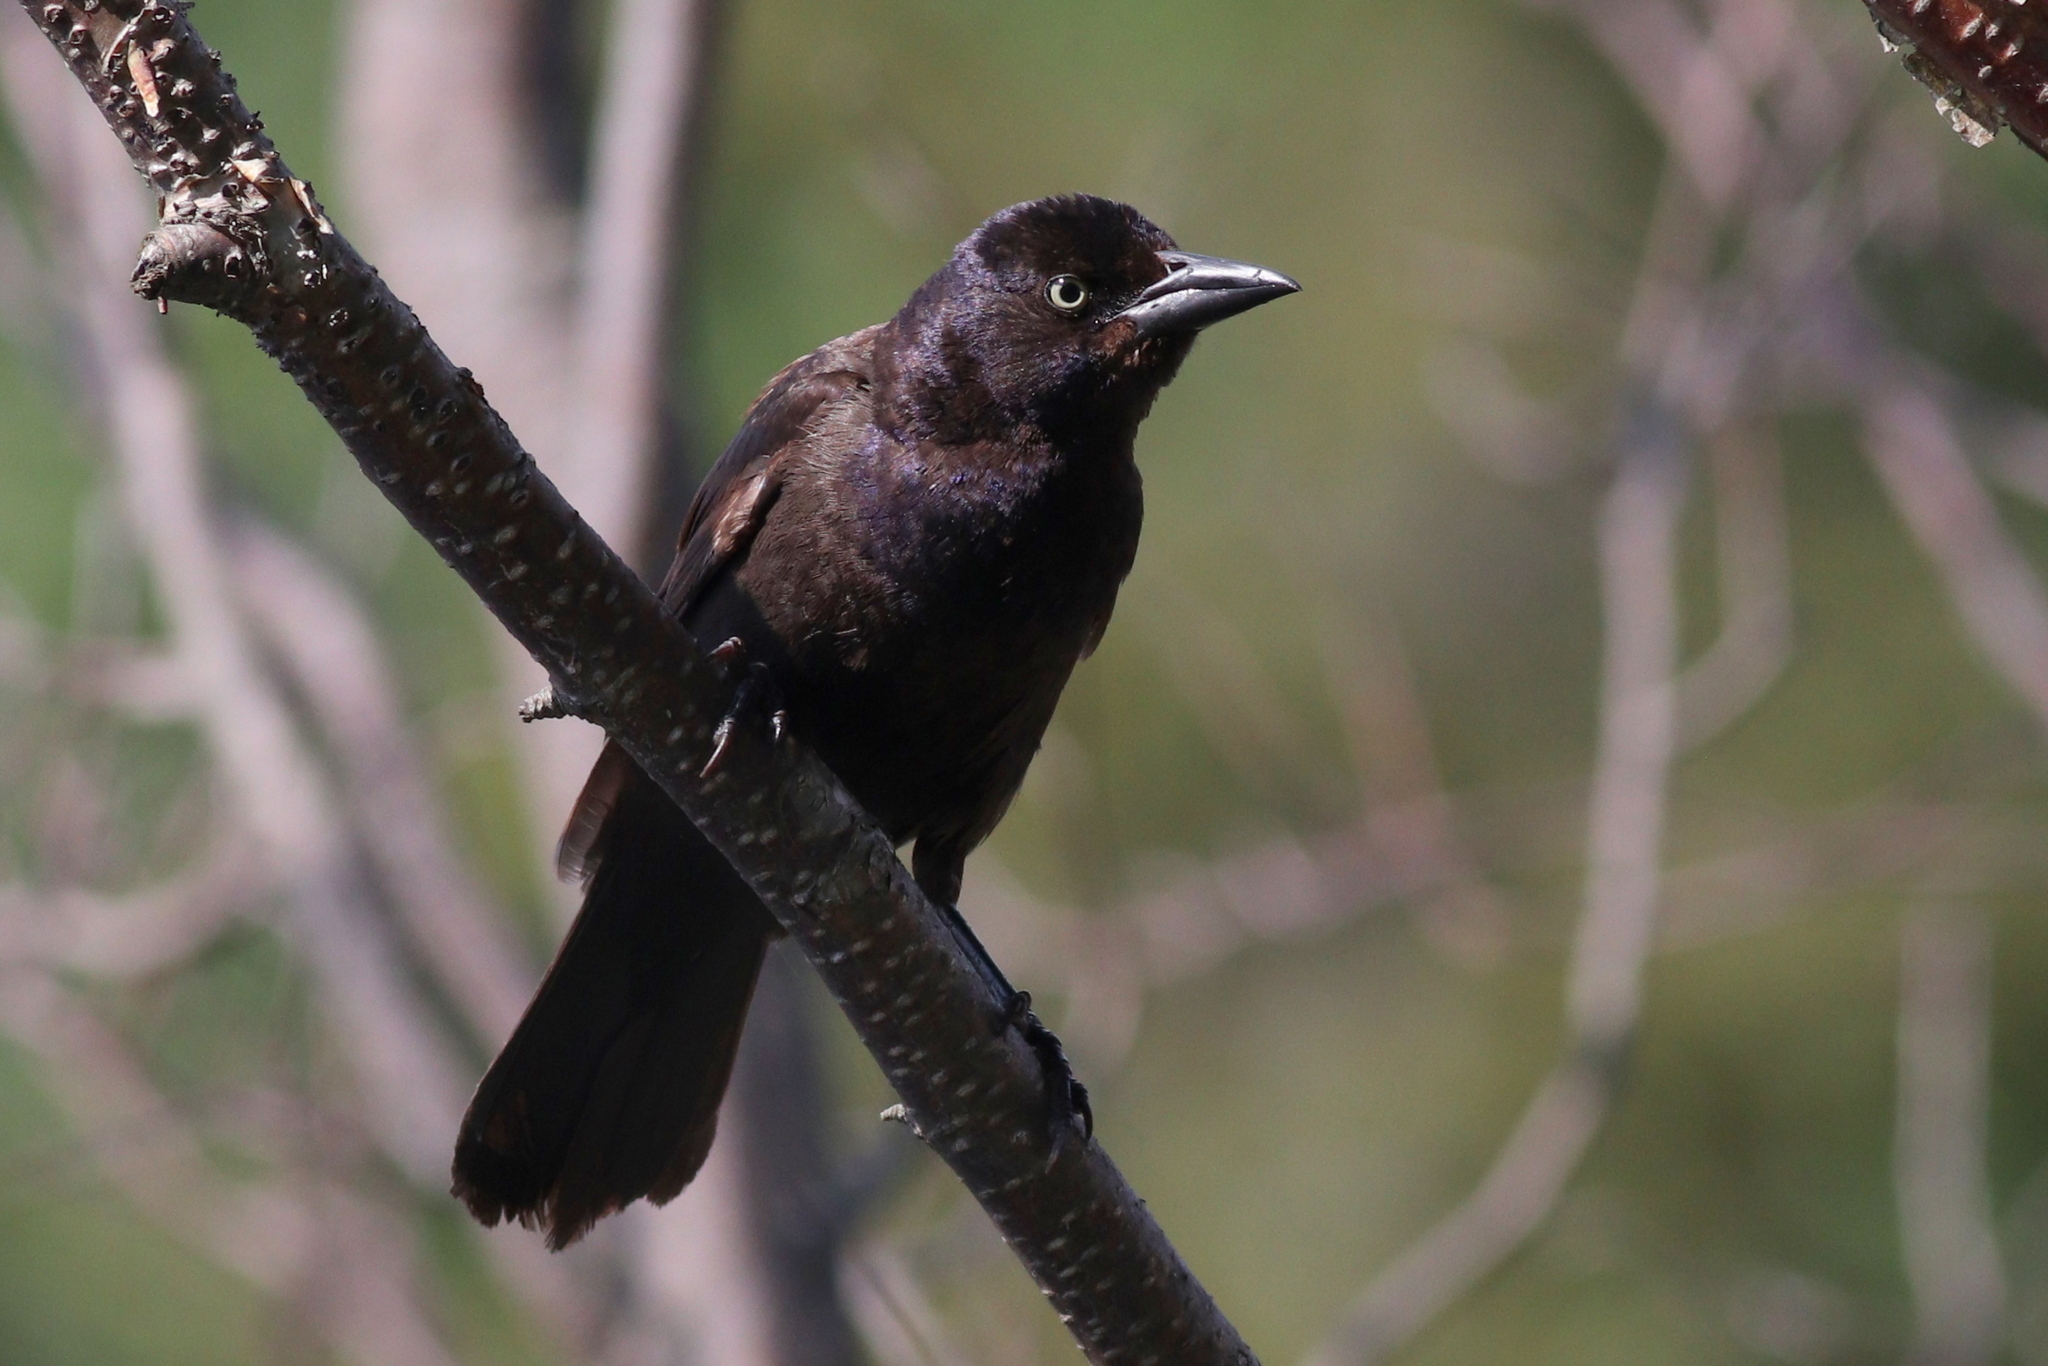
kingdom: Animalia
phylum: Chordata
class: Aves
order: Passeriformes
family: Icteridae
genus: Quiscalus
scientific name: Quiscalus quiscula
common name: Common grackle
